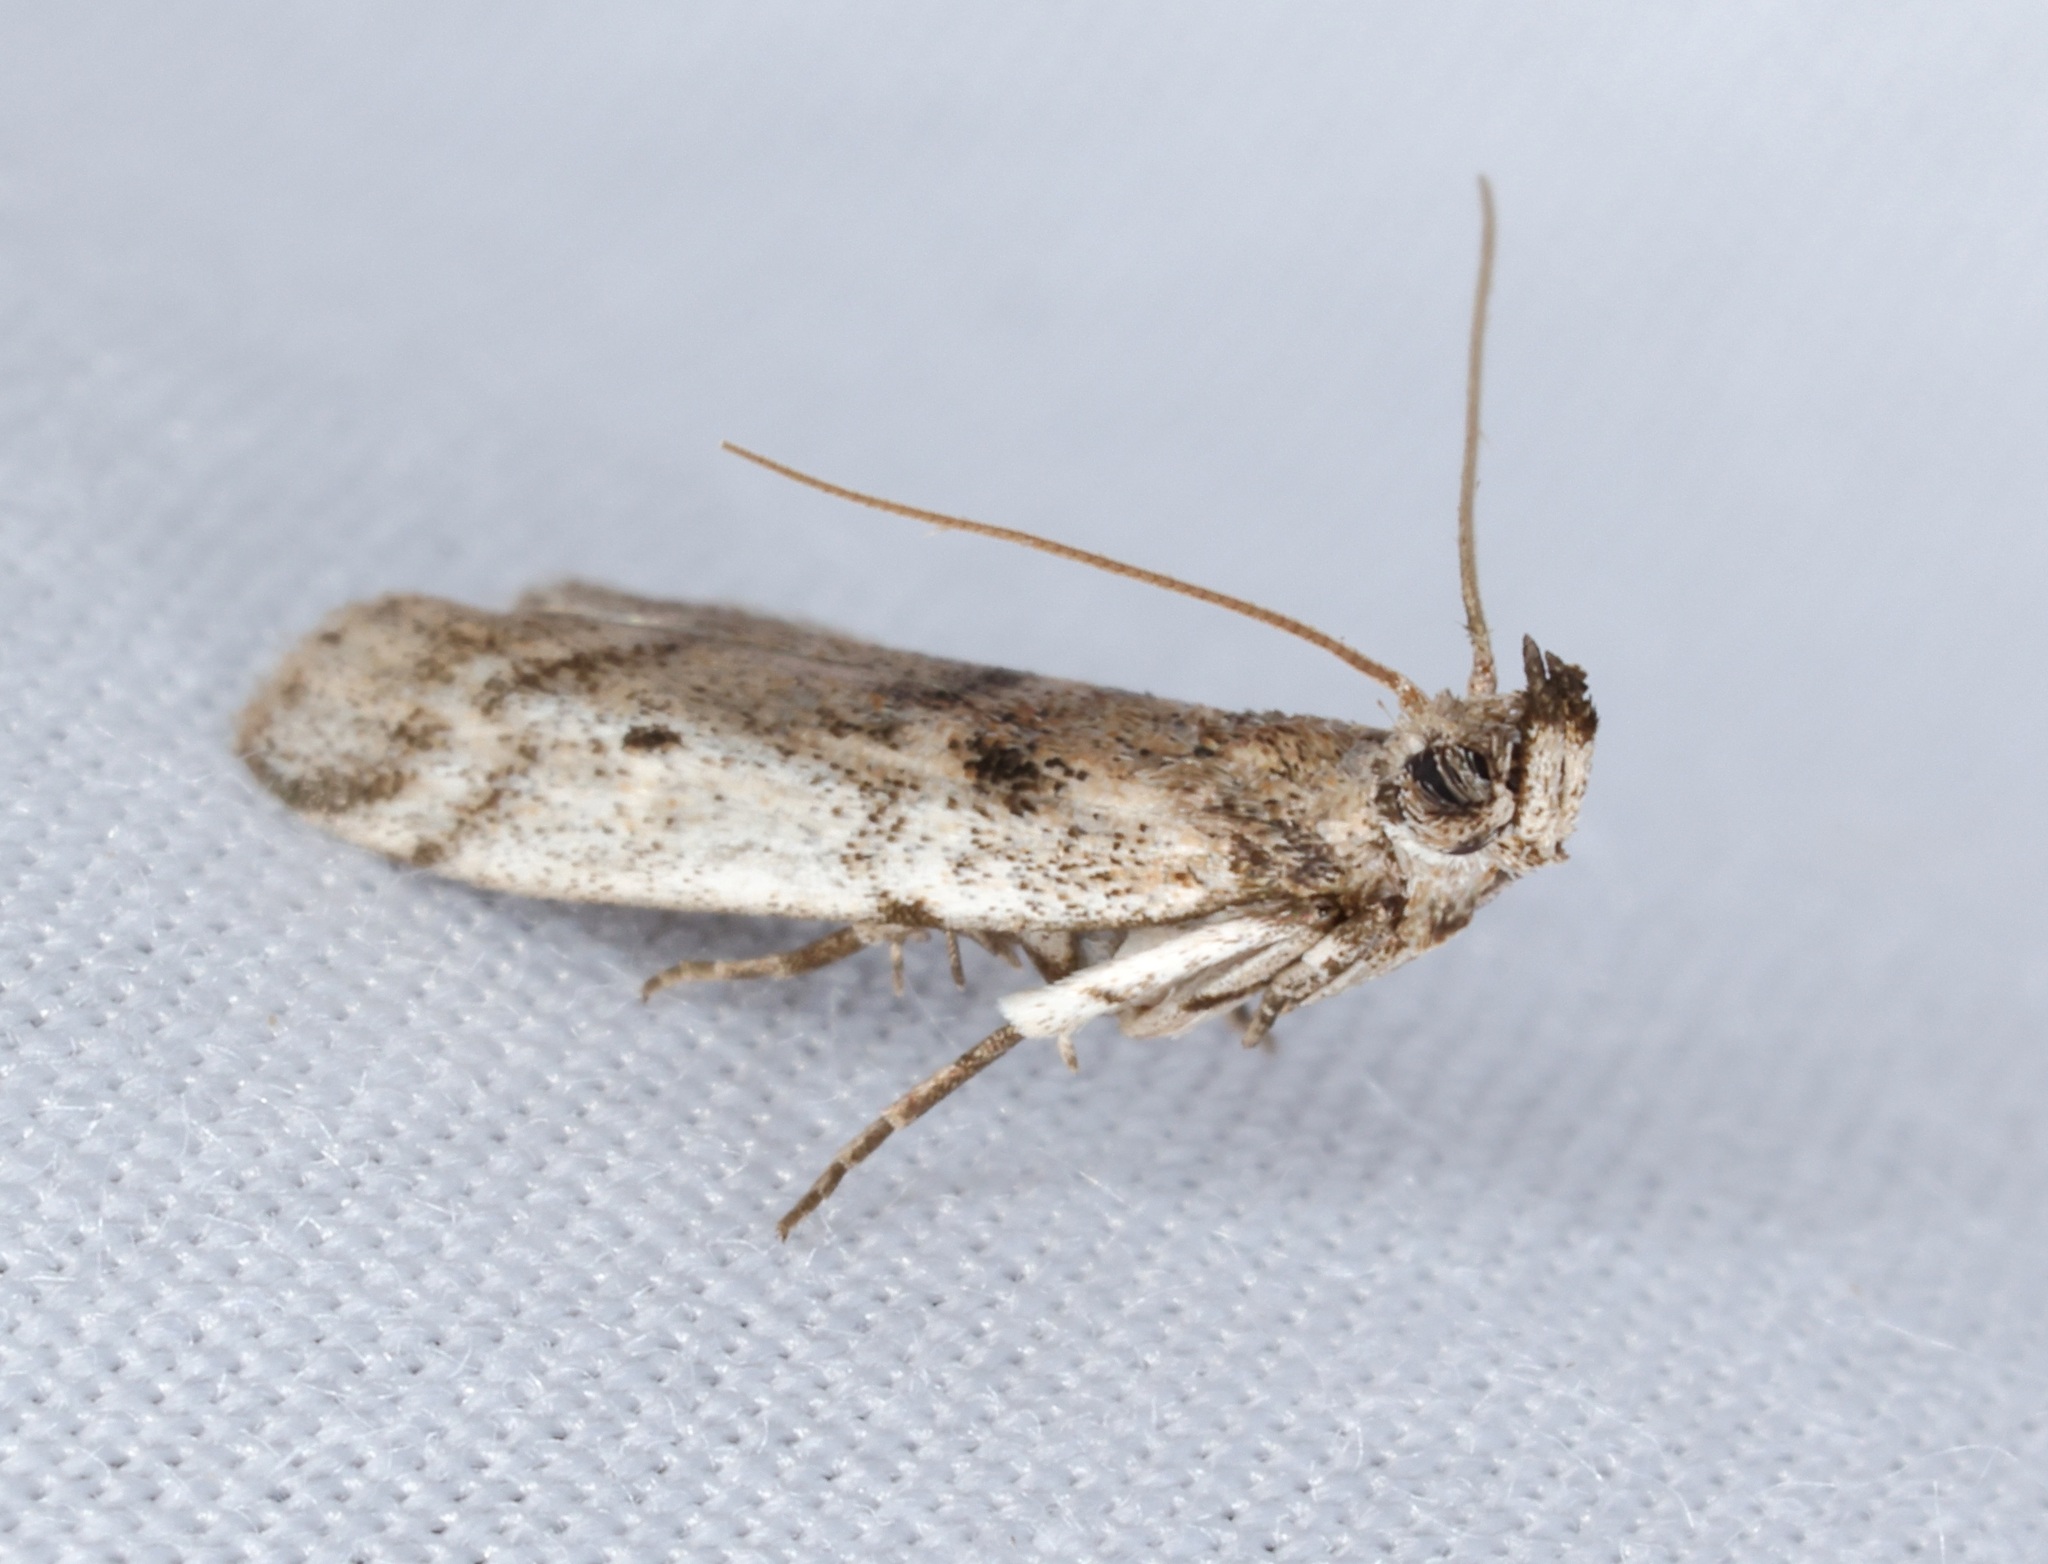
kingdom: Animalia
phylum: Arthropoda
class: Insecta
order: Lepidoptera
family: Pyralidae
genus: Vinicia
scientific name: Vinicia
